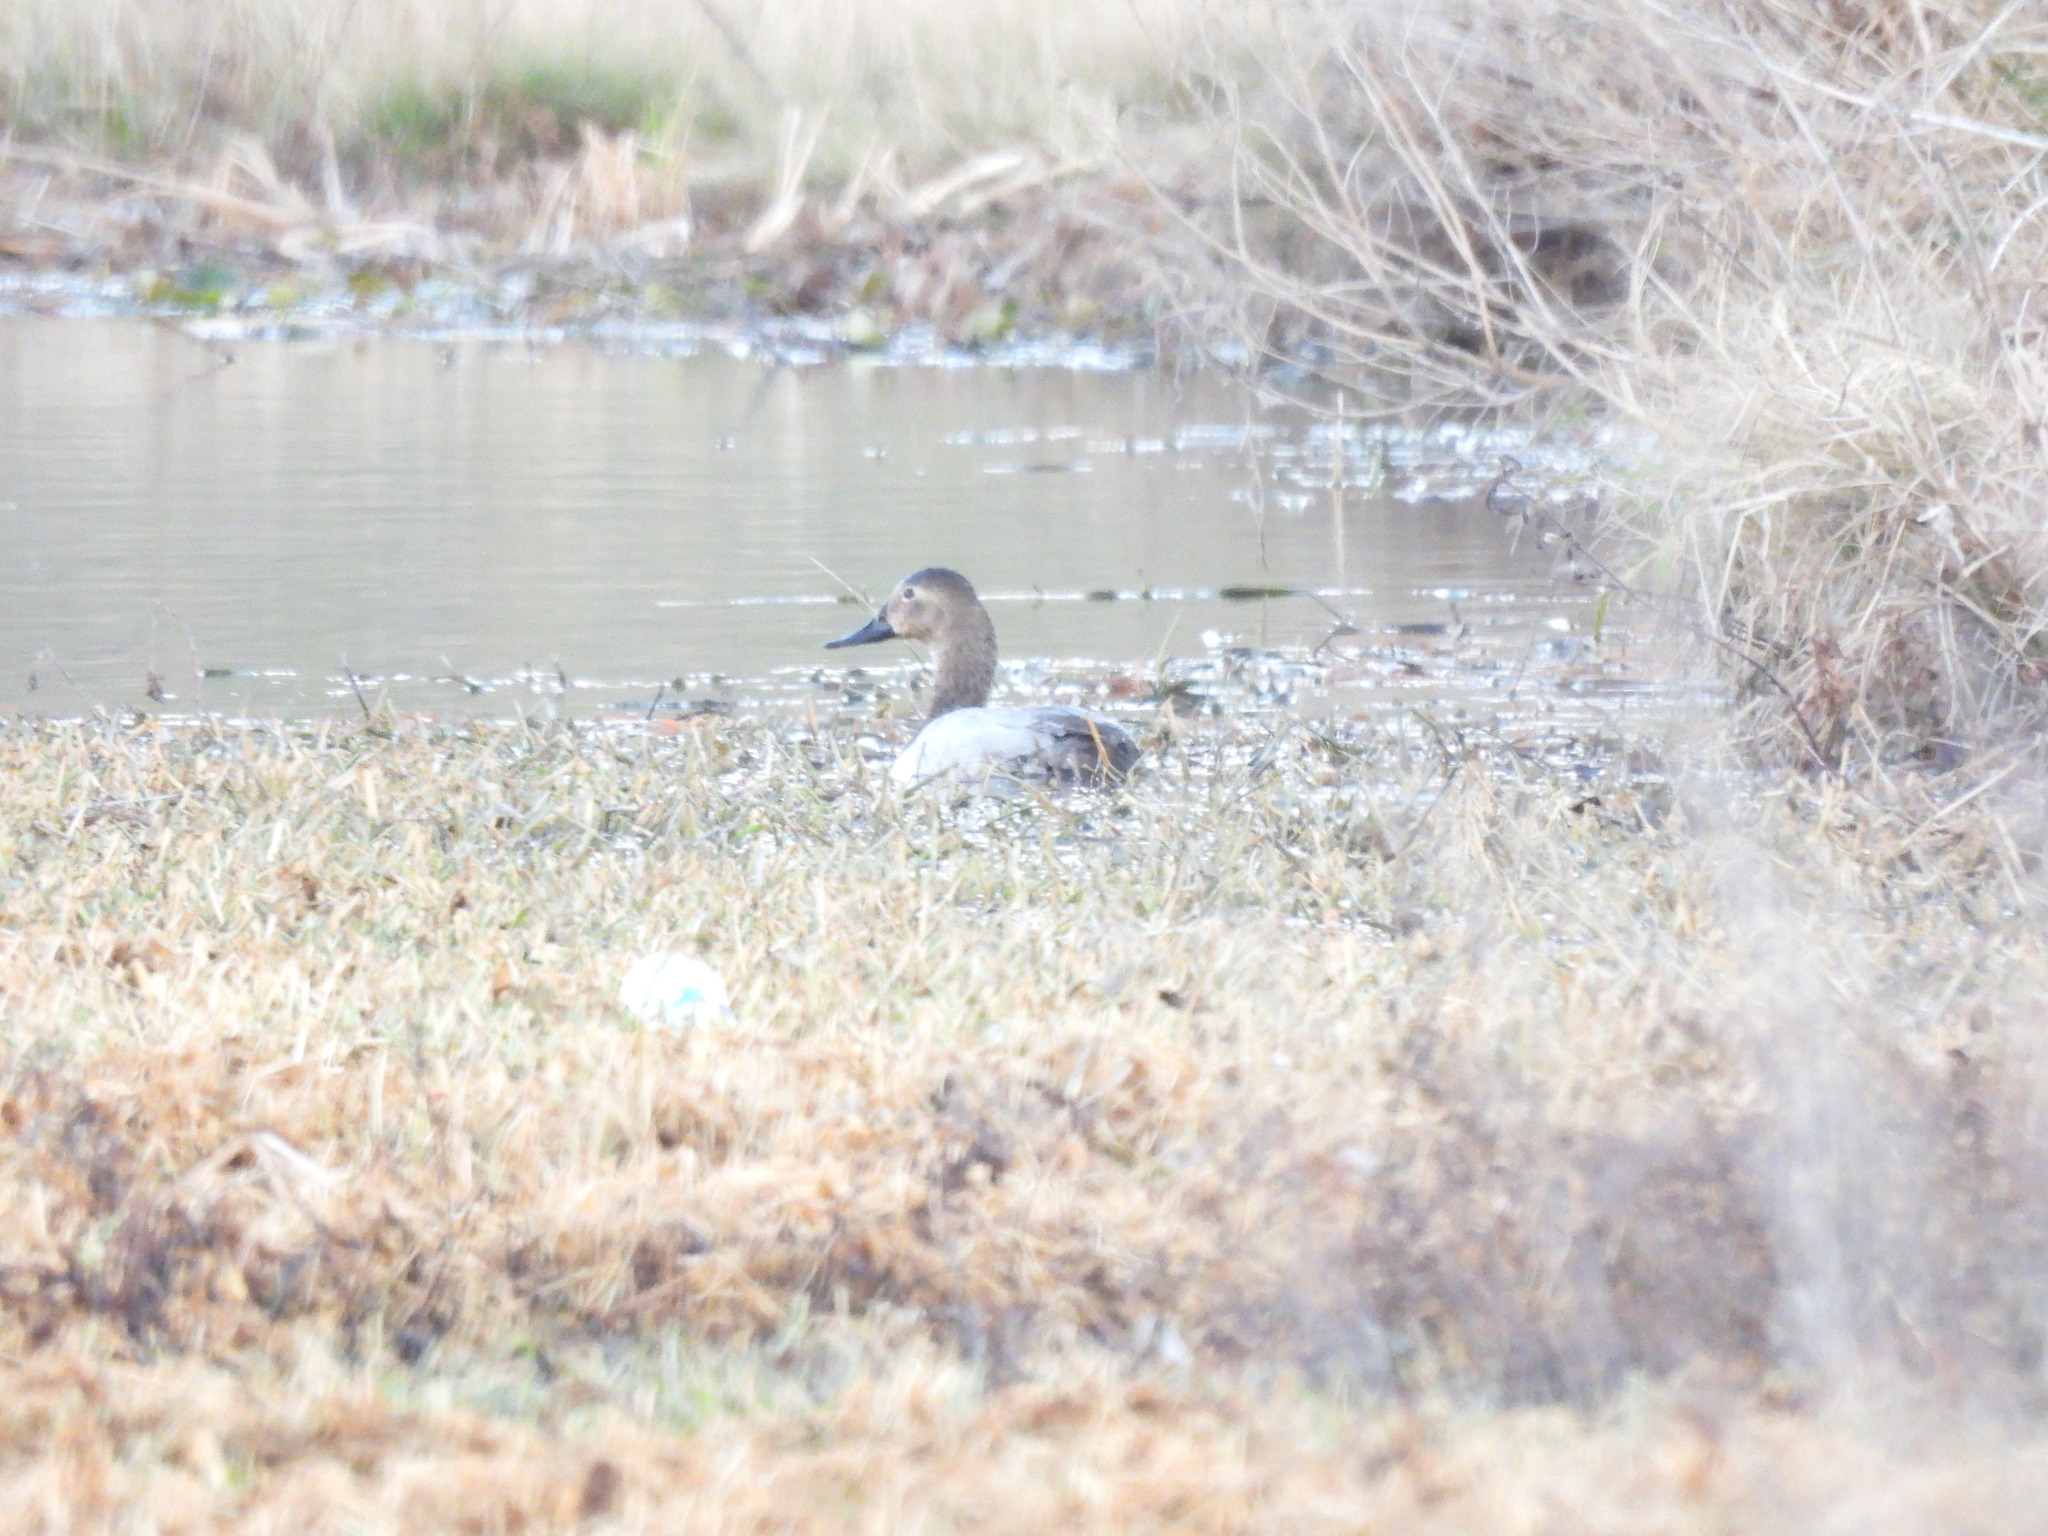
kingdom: Animalia
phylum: Chordata
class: Aves
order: Anseriformes
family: Anatidae
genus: Aythya
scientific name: Aythya valisineria
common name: Canvasback
